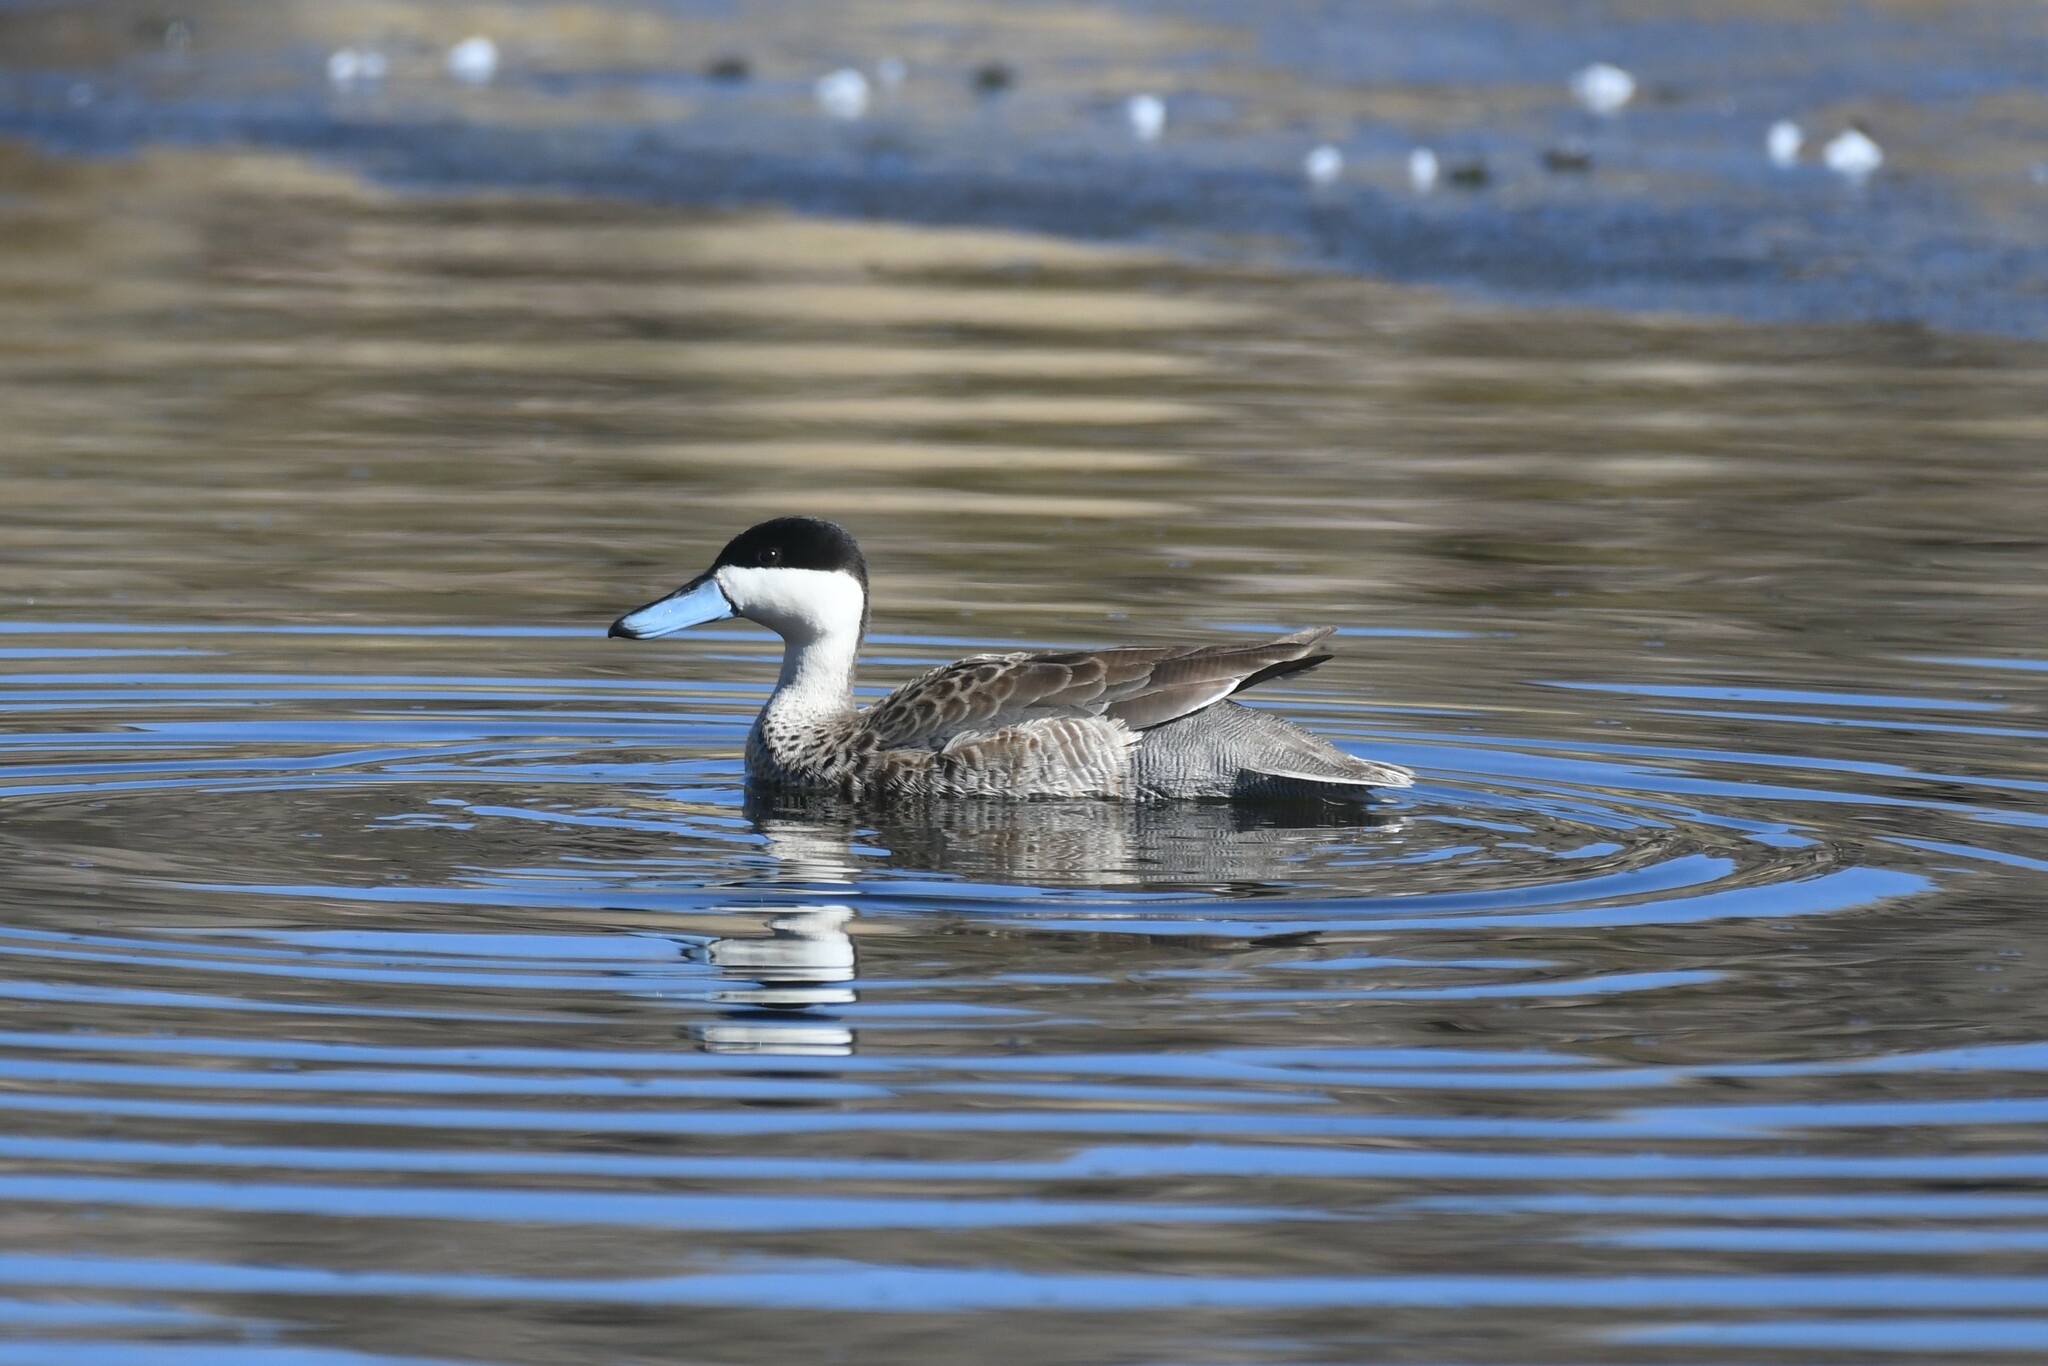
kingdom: Animalia
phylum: Chordata
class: Aves
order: Anseriformes
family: Anatidae
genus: Spatula
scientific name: Spatula puna
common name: Puna teal
